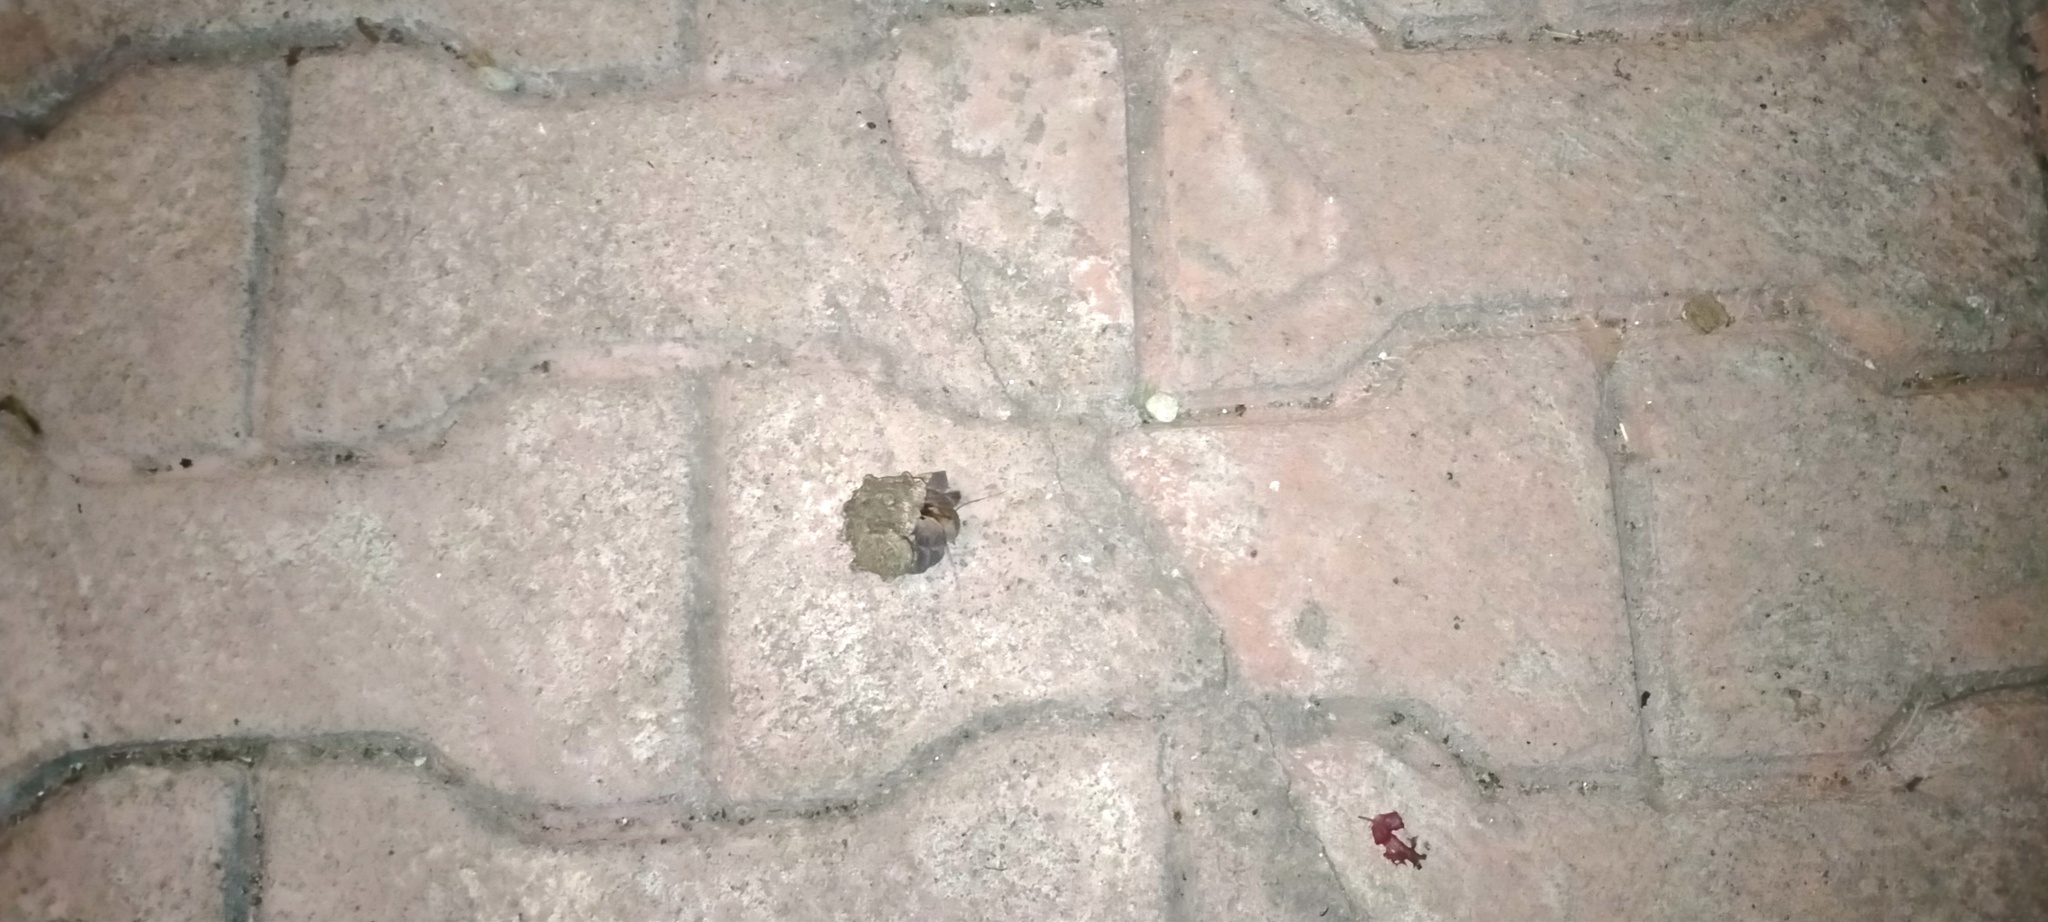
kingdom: Animalia
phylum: Arthropoda
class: Malacostraca
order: Decapoda
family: Coenobitidae
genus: Coenobita
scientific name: Coenobita brevimanus
